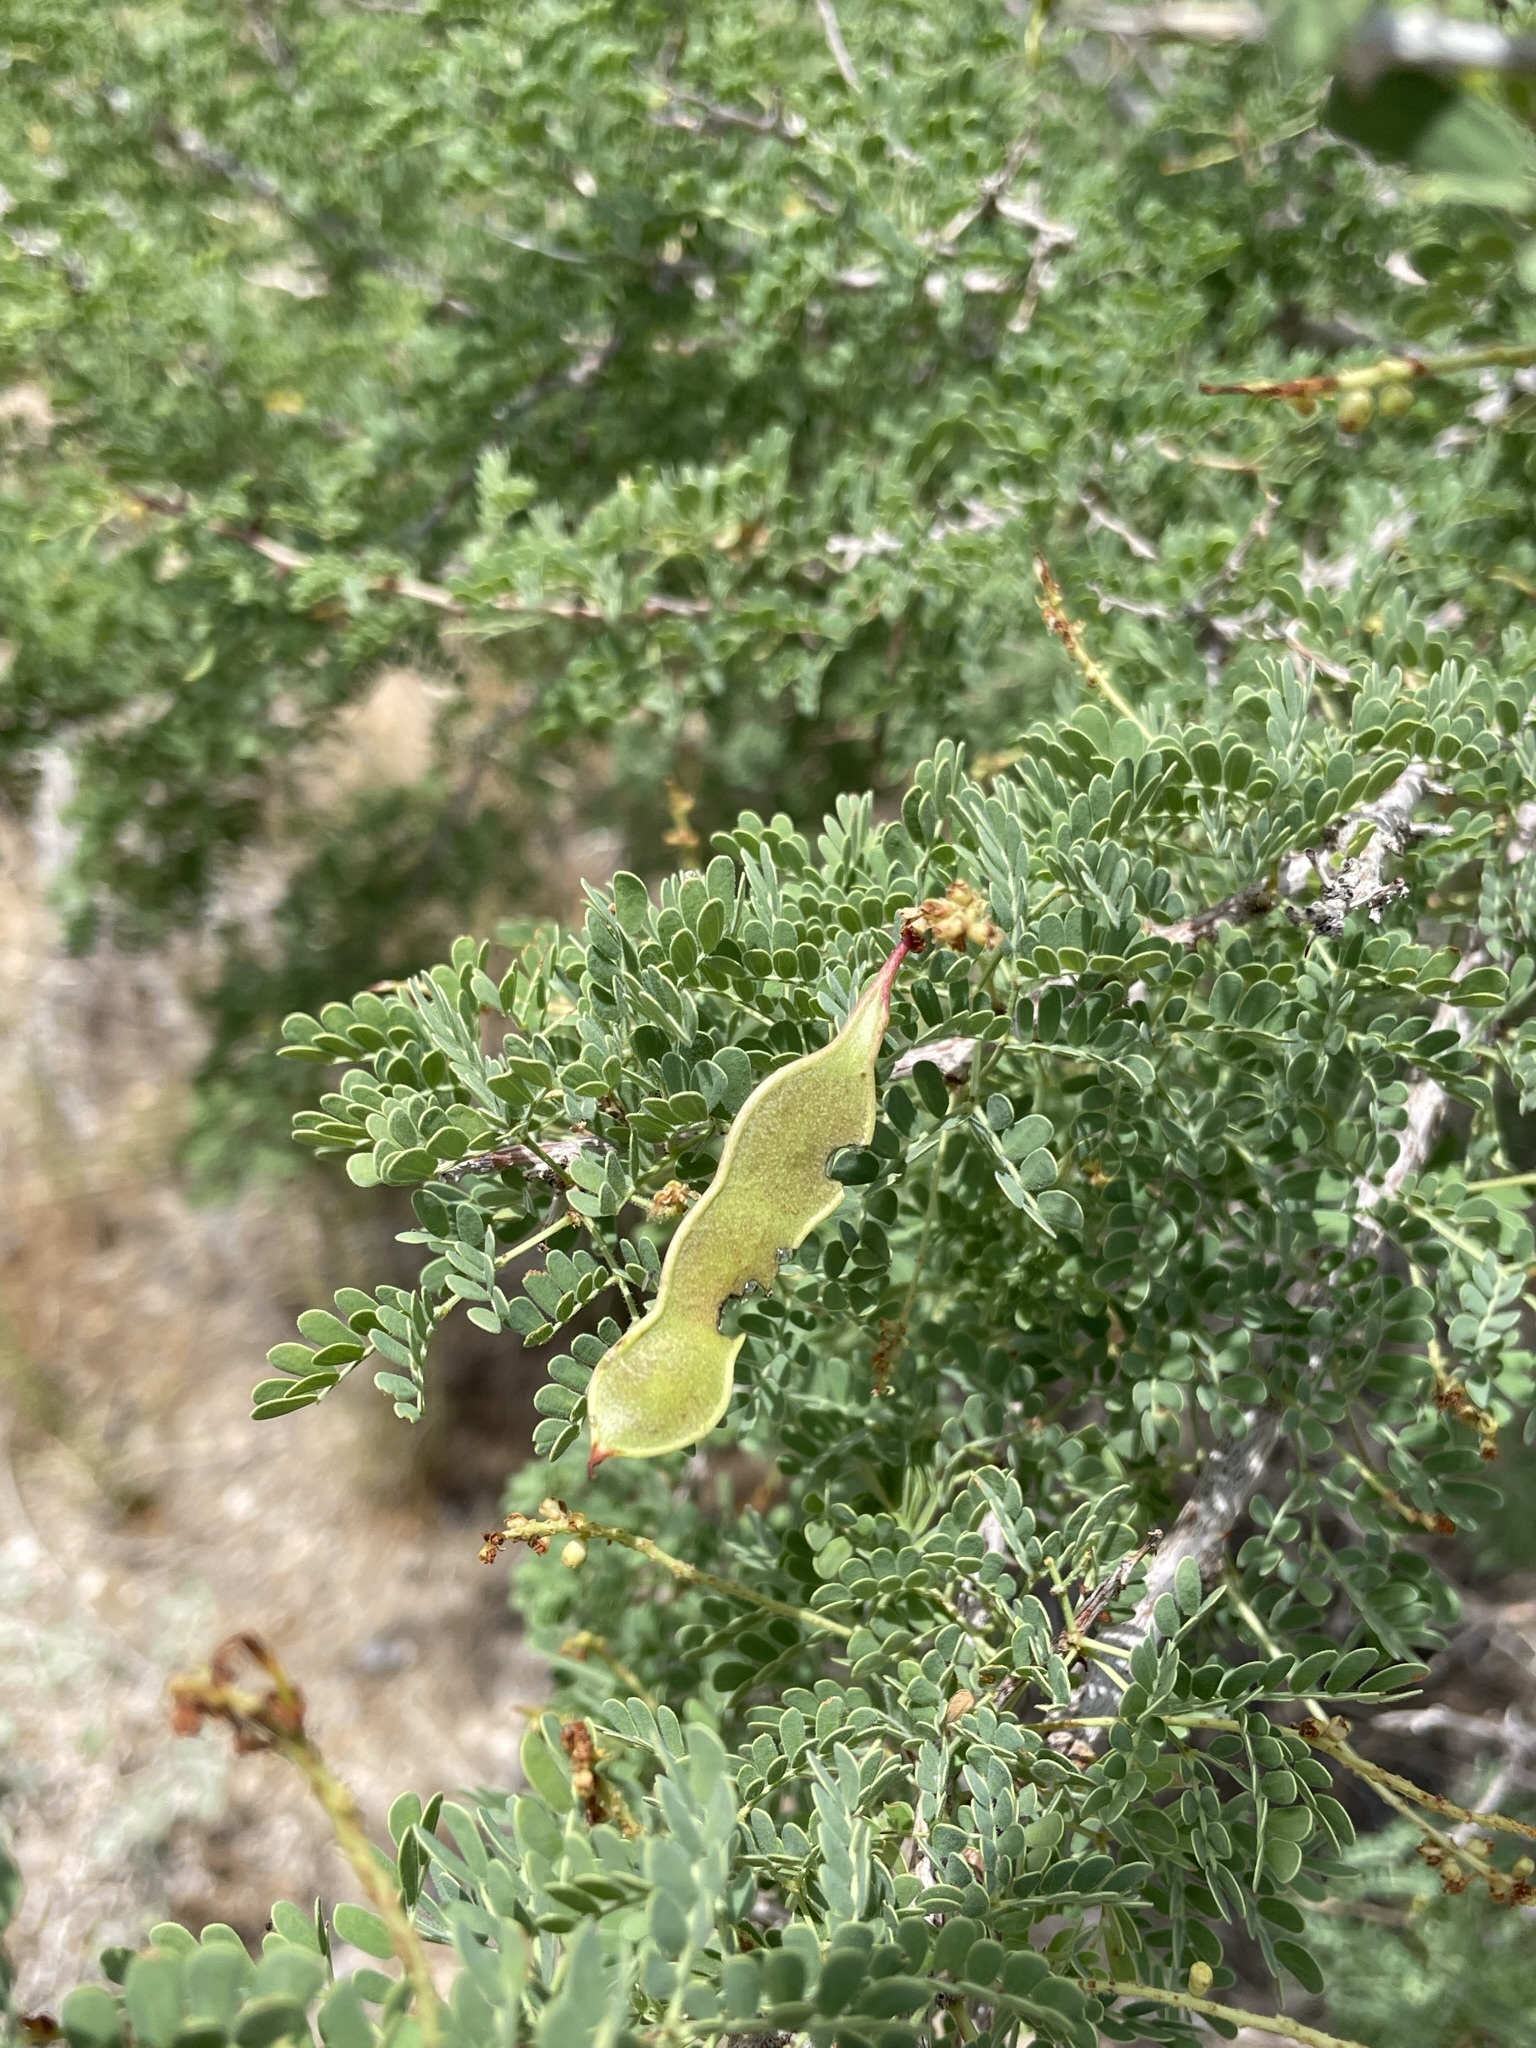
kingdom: Plantae
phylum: Tracheophyta
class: Magnoliopsida
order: Fabales
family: Fabaceae
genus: Senegalia
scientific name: Senegalia greggii
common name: Texas-mimosa
